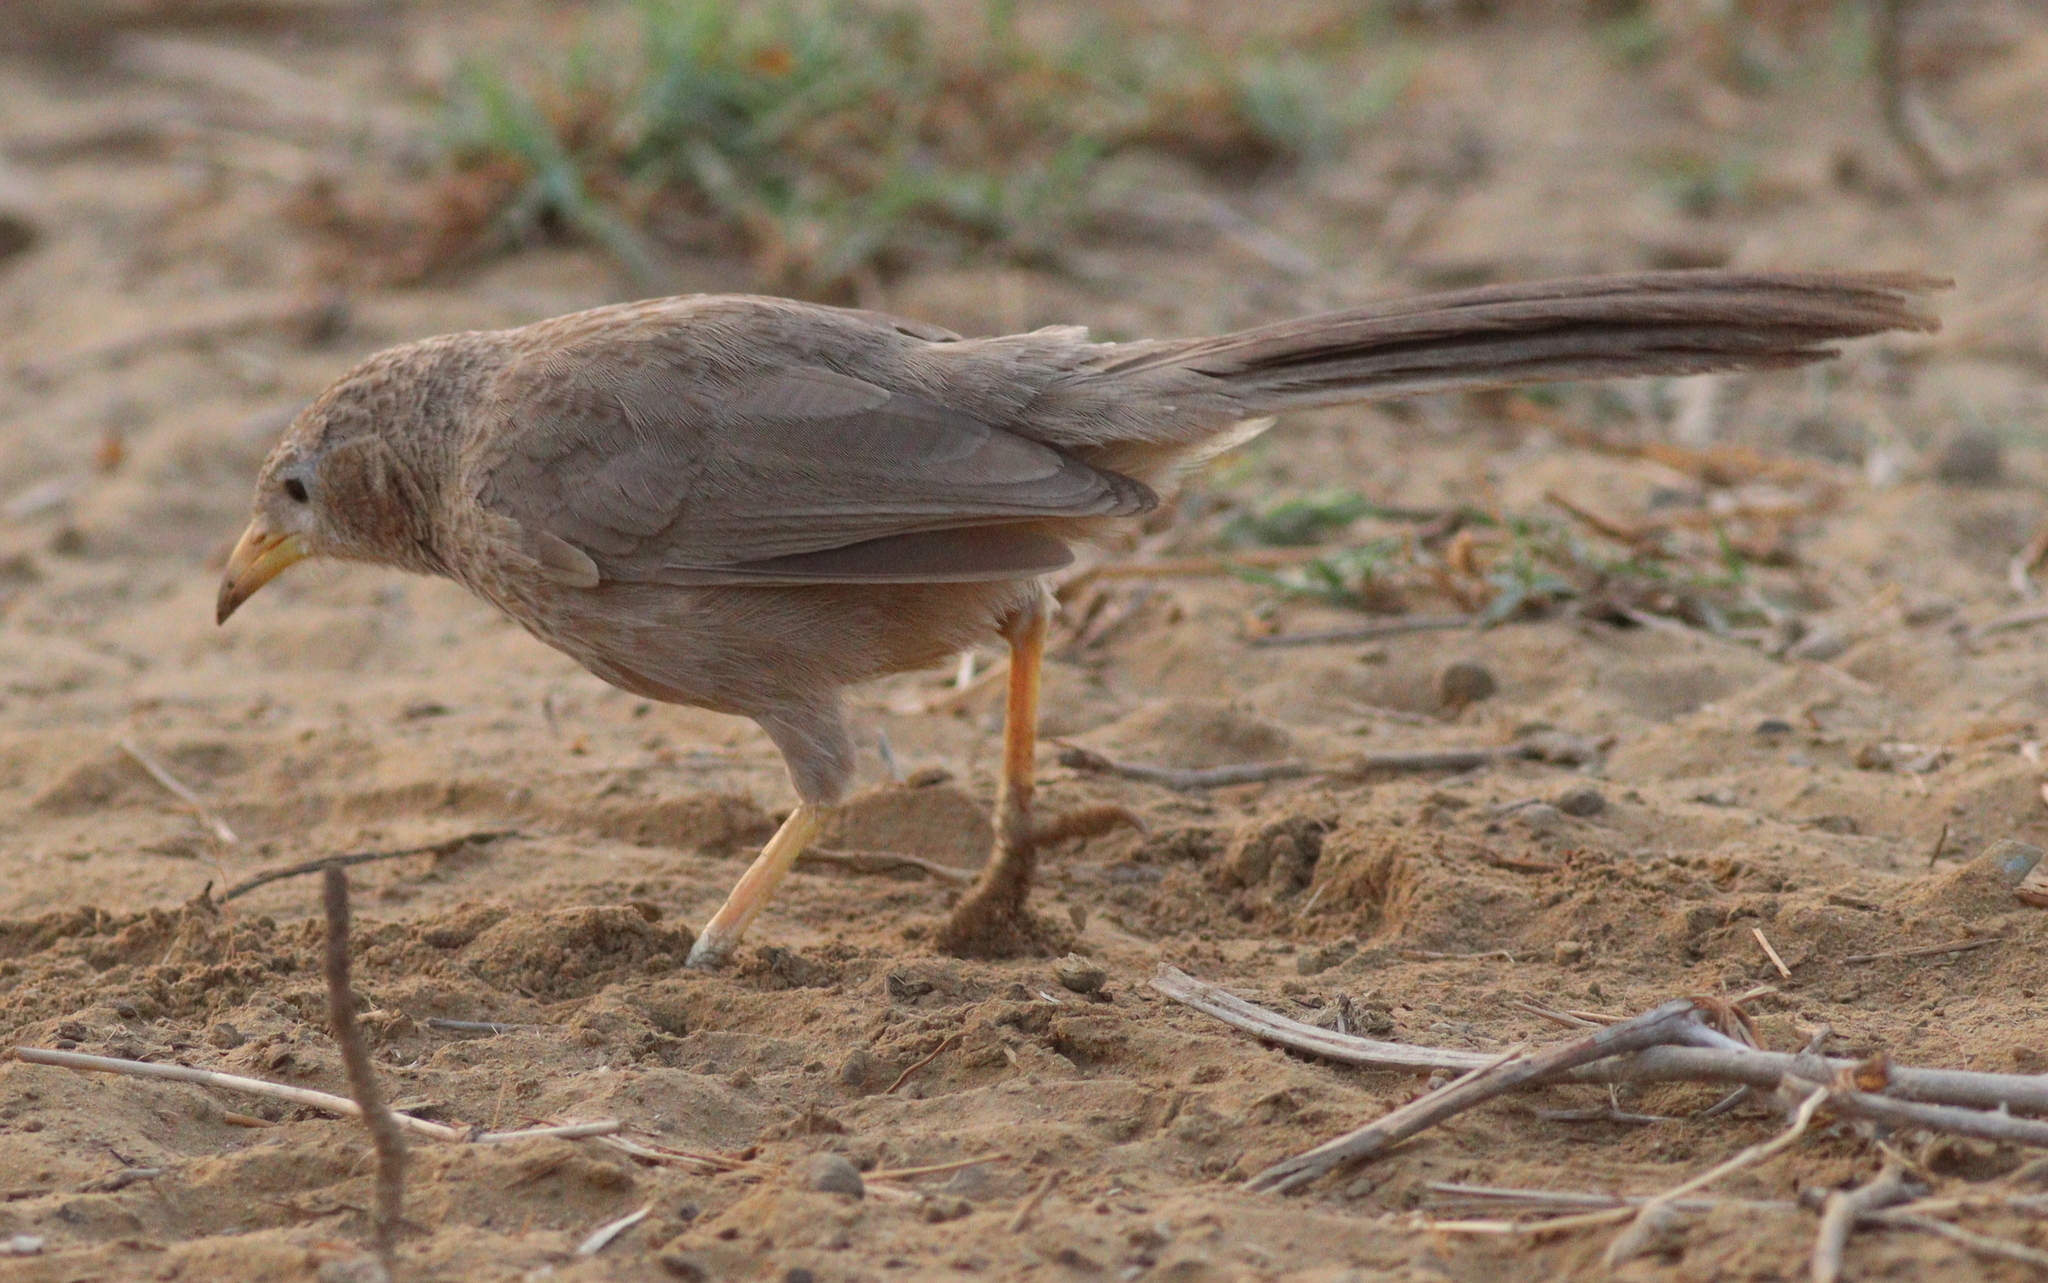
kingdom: Animalia
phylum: Chordata
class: Aves
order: Passeriformes
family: Leiothrichidae
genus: Turdoides
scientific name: Turdoides squamiceps
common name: Arabian babbler
